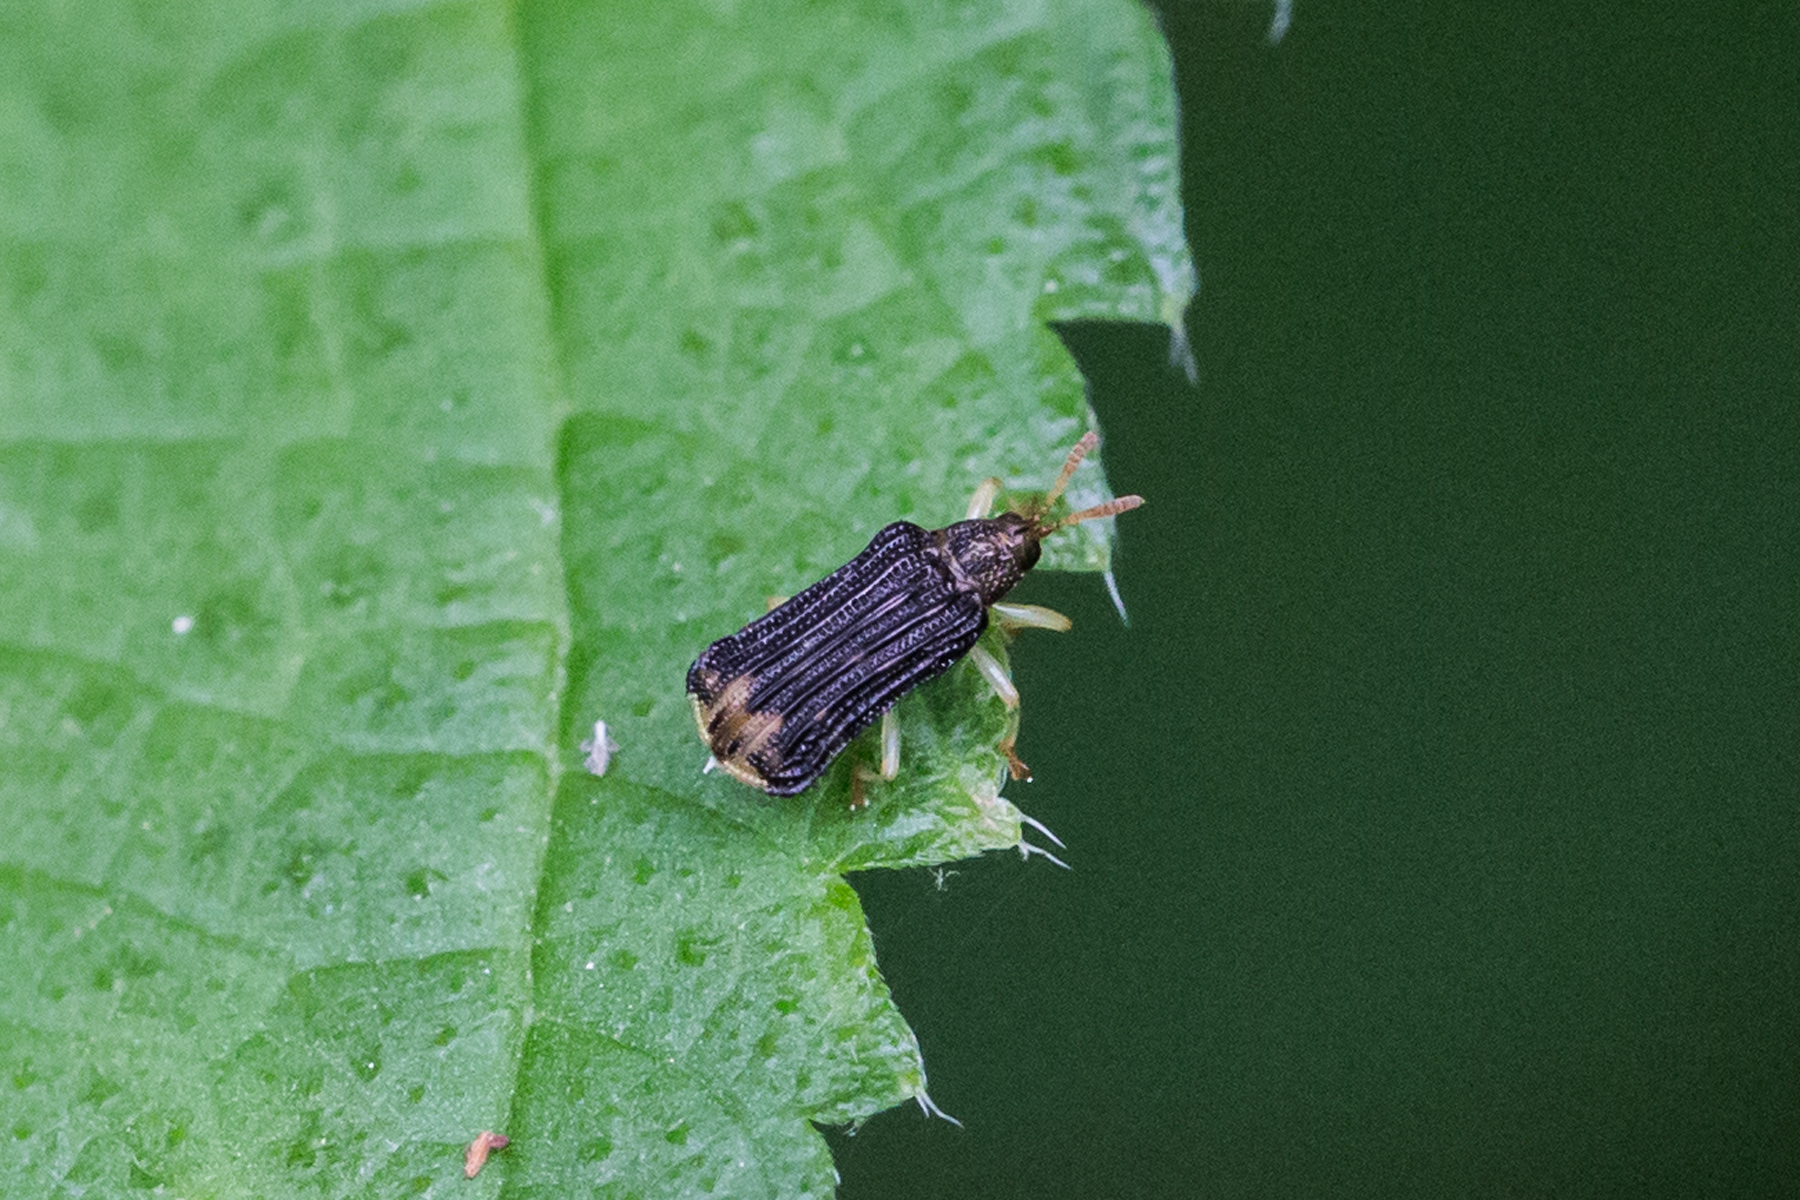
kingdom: Animalia
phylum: Arthropoda
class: Insecta
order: Coleoptera
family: Chrysomelidae
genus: Sumitrosis
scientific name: Sumitrosis rosea
